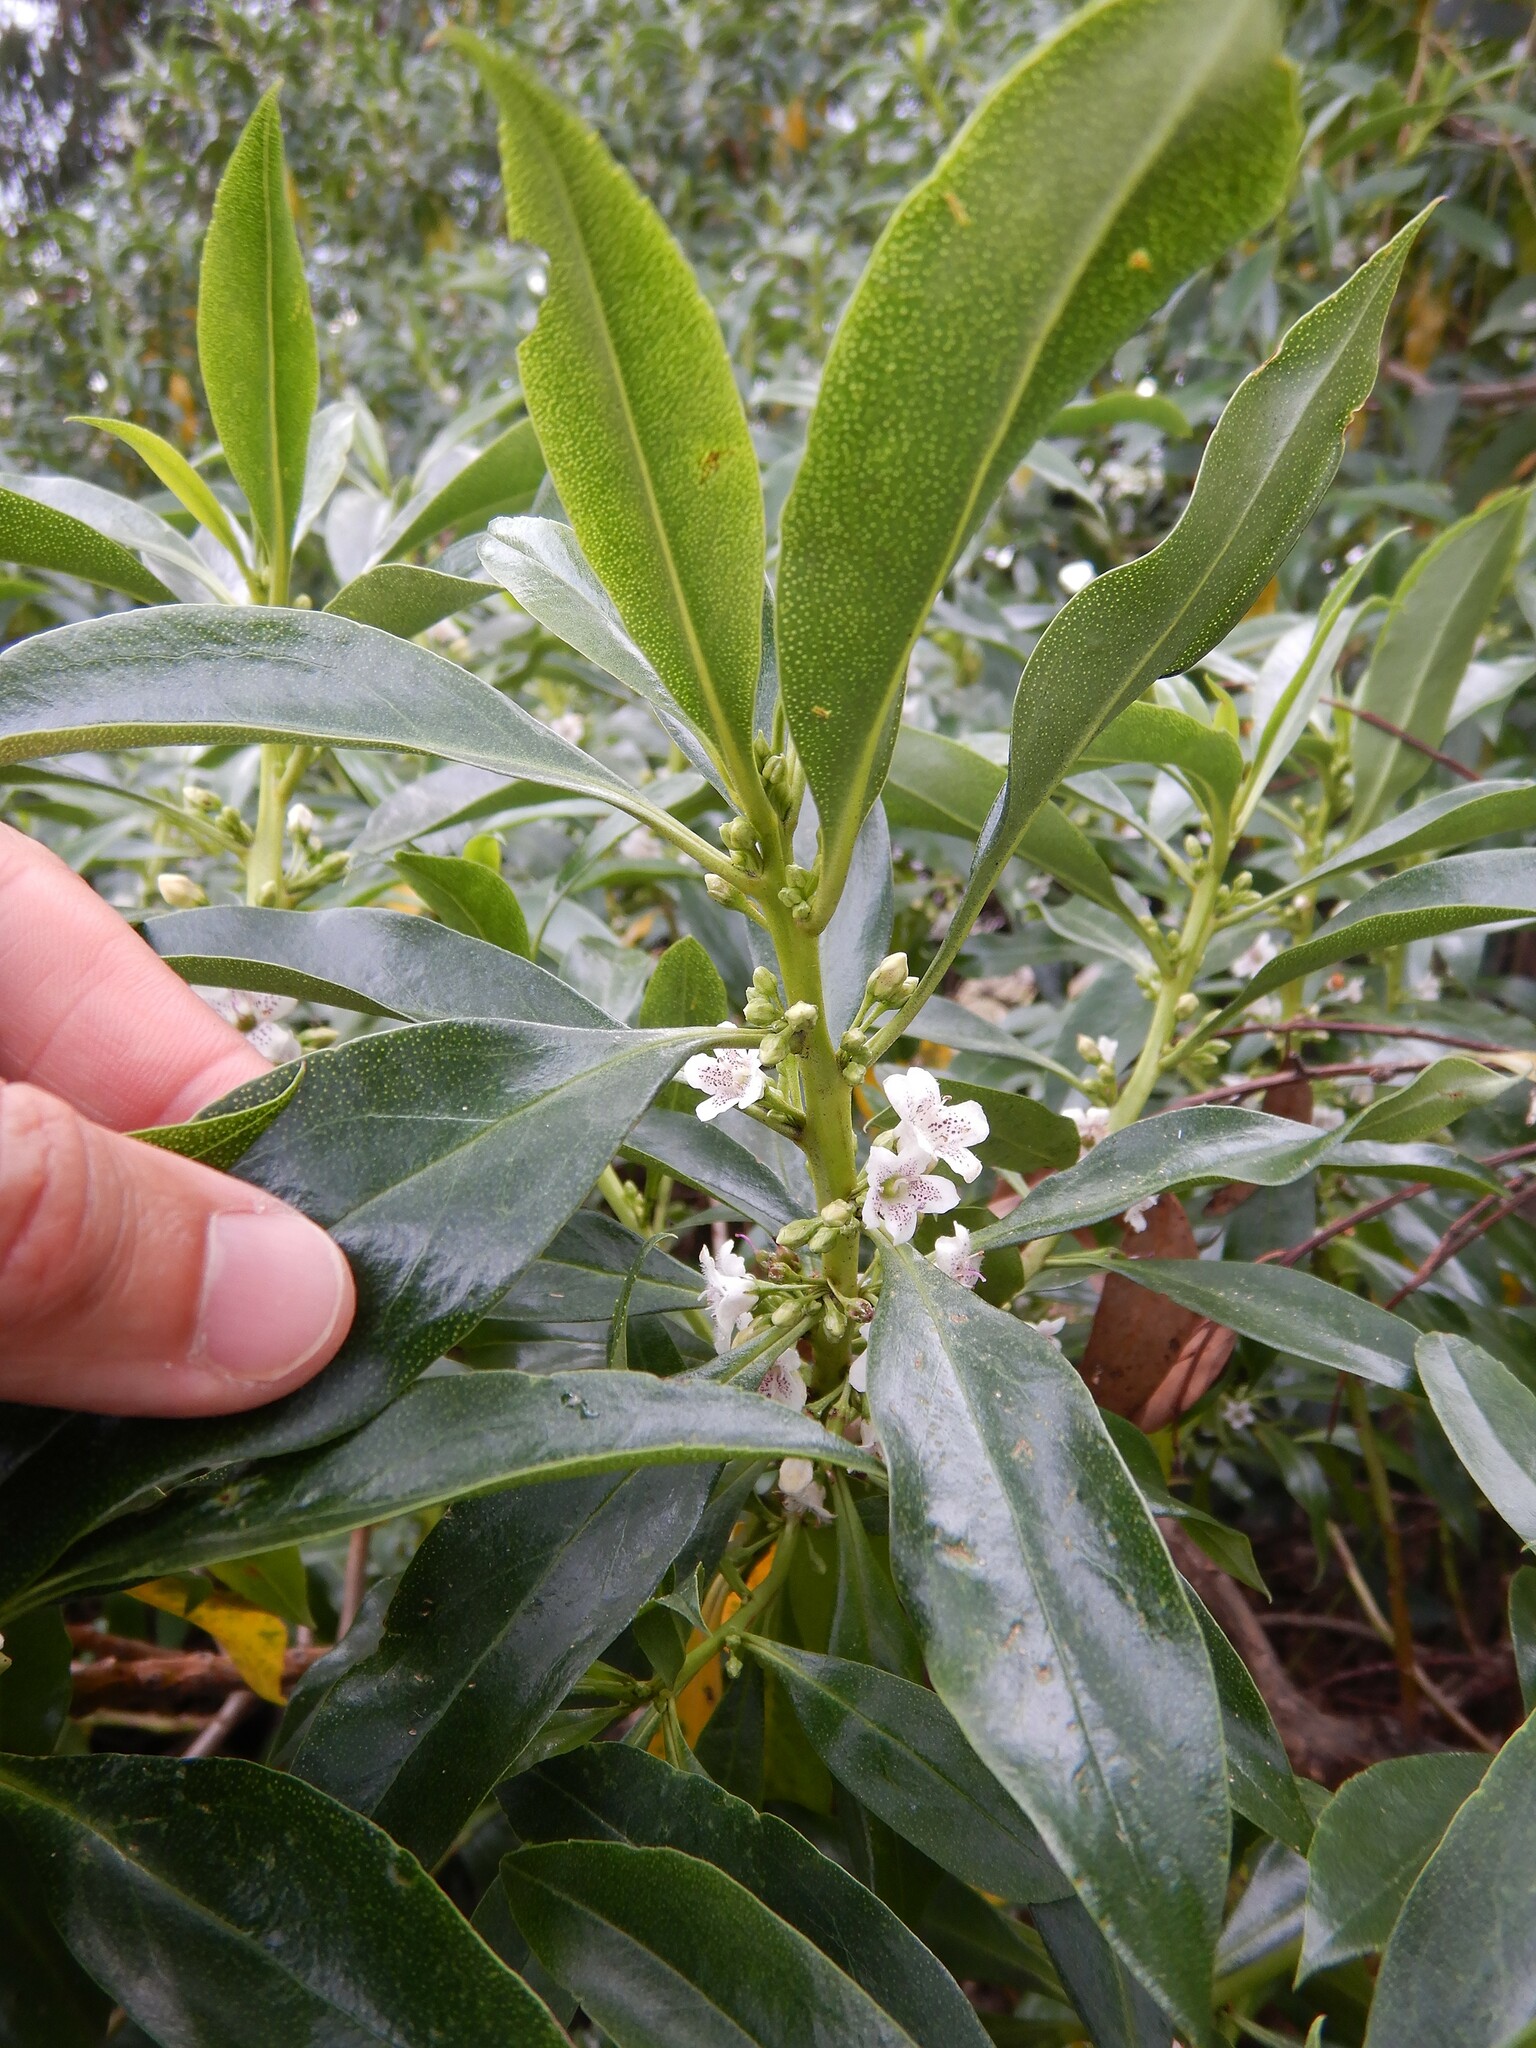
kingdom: Plantae
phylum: Tracheophyta
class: Magnoliopsida
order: Lamiales
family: Scrophulariaceae
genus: Myoporum
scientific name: Myoporum laetum
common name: Ngaio tree
